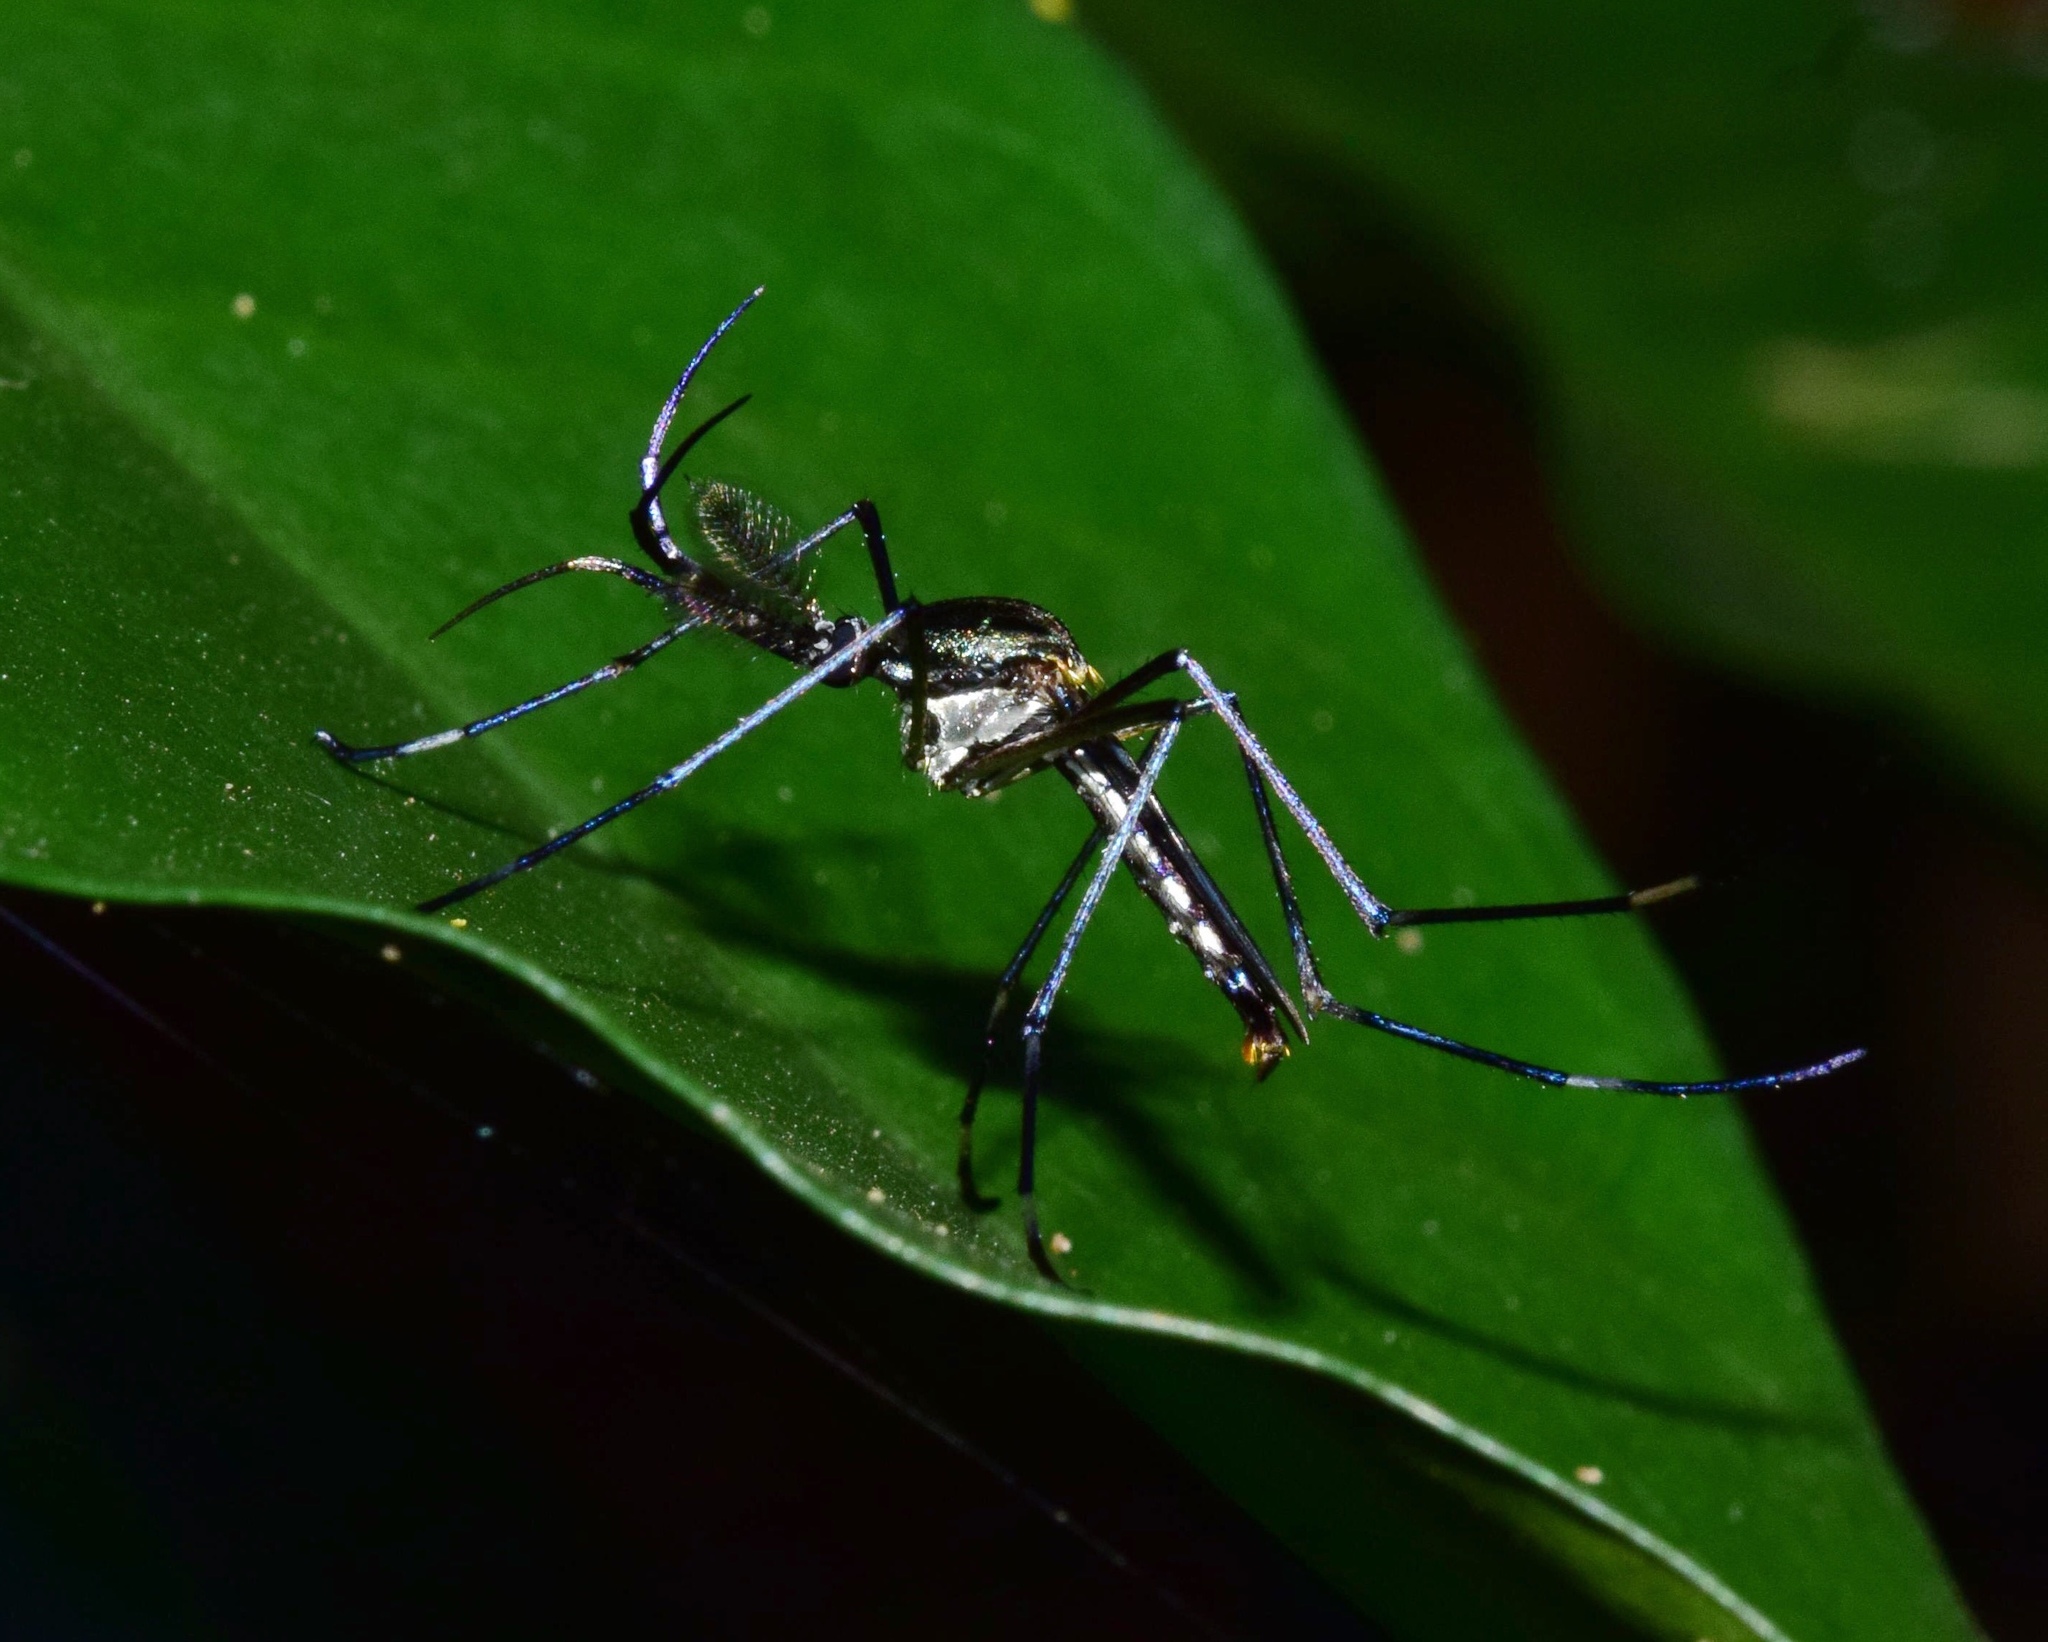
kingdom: Animalia
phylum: Arthropoda
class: Insecta
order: Diptera
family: Culicidae
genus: Toxorhynchites
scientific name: Toxorhynchites brevipalpis
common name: Mosquito
